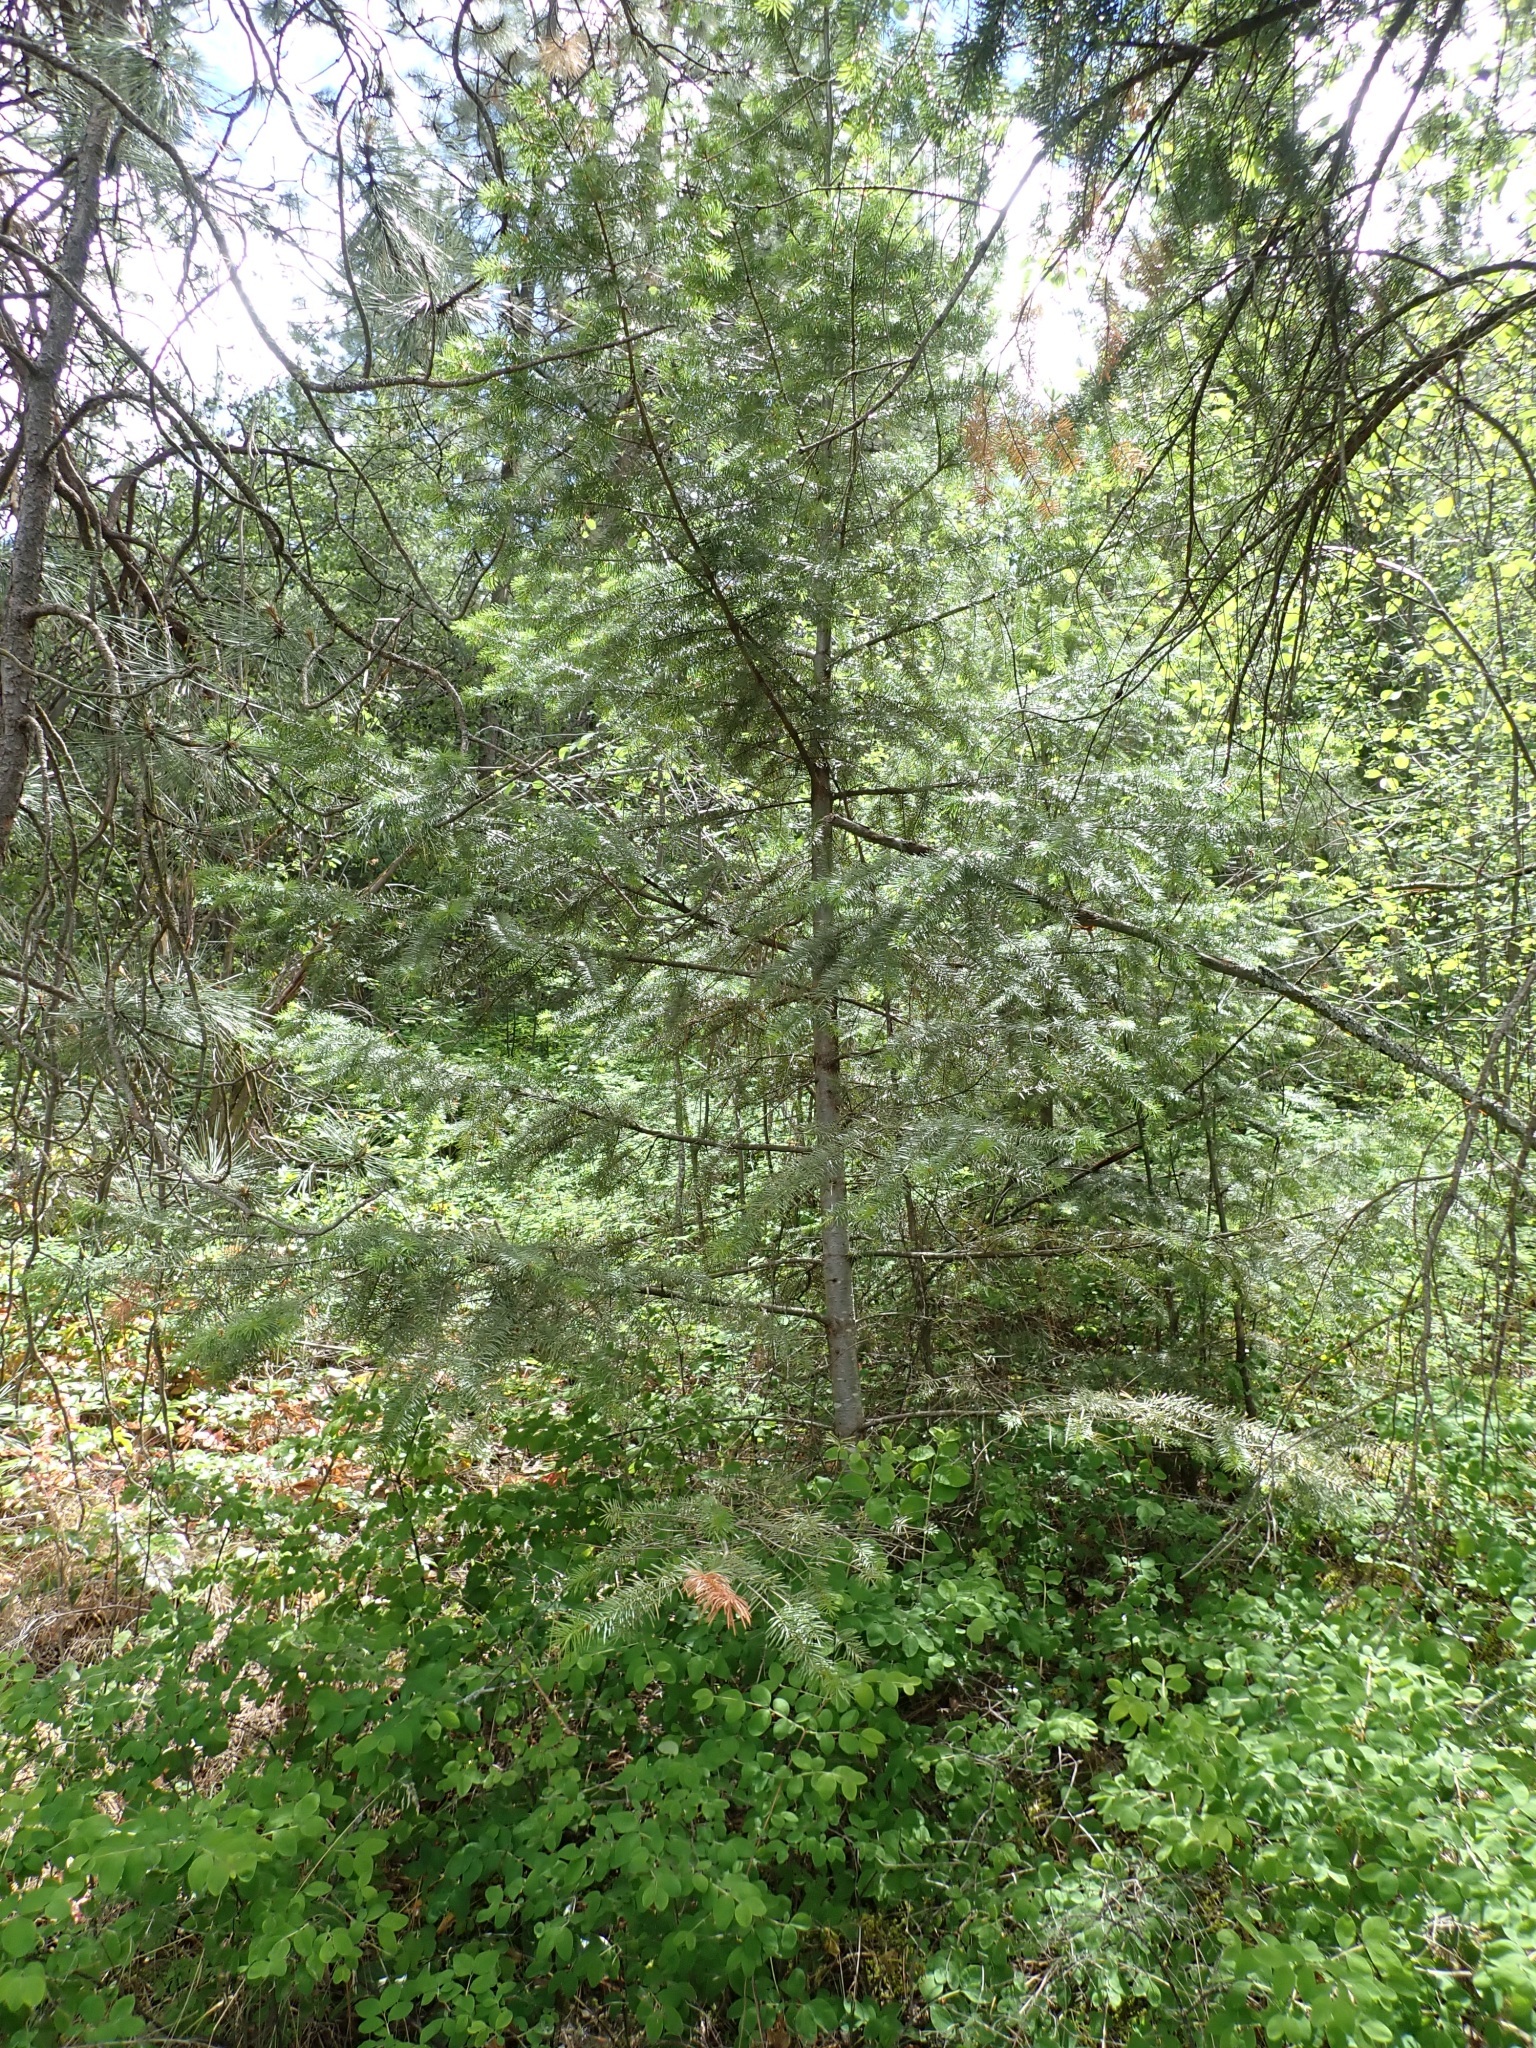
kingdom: Plantae
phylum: Tracheophyta
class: Pinopsida
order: Pinales
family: Pinaceae
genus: Pseudotsuga
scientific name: Pseudotsuga menziesii
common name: Douglas fir
